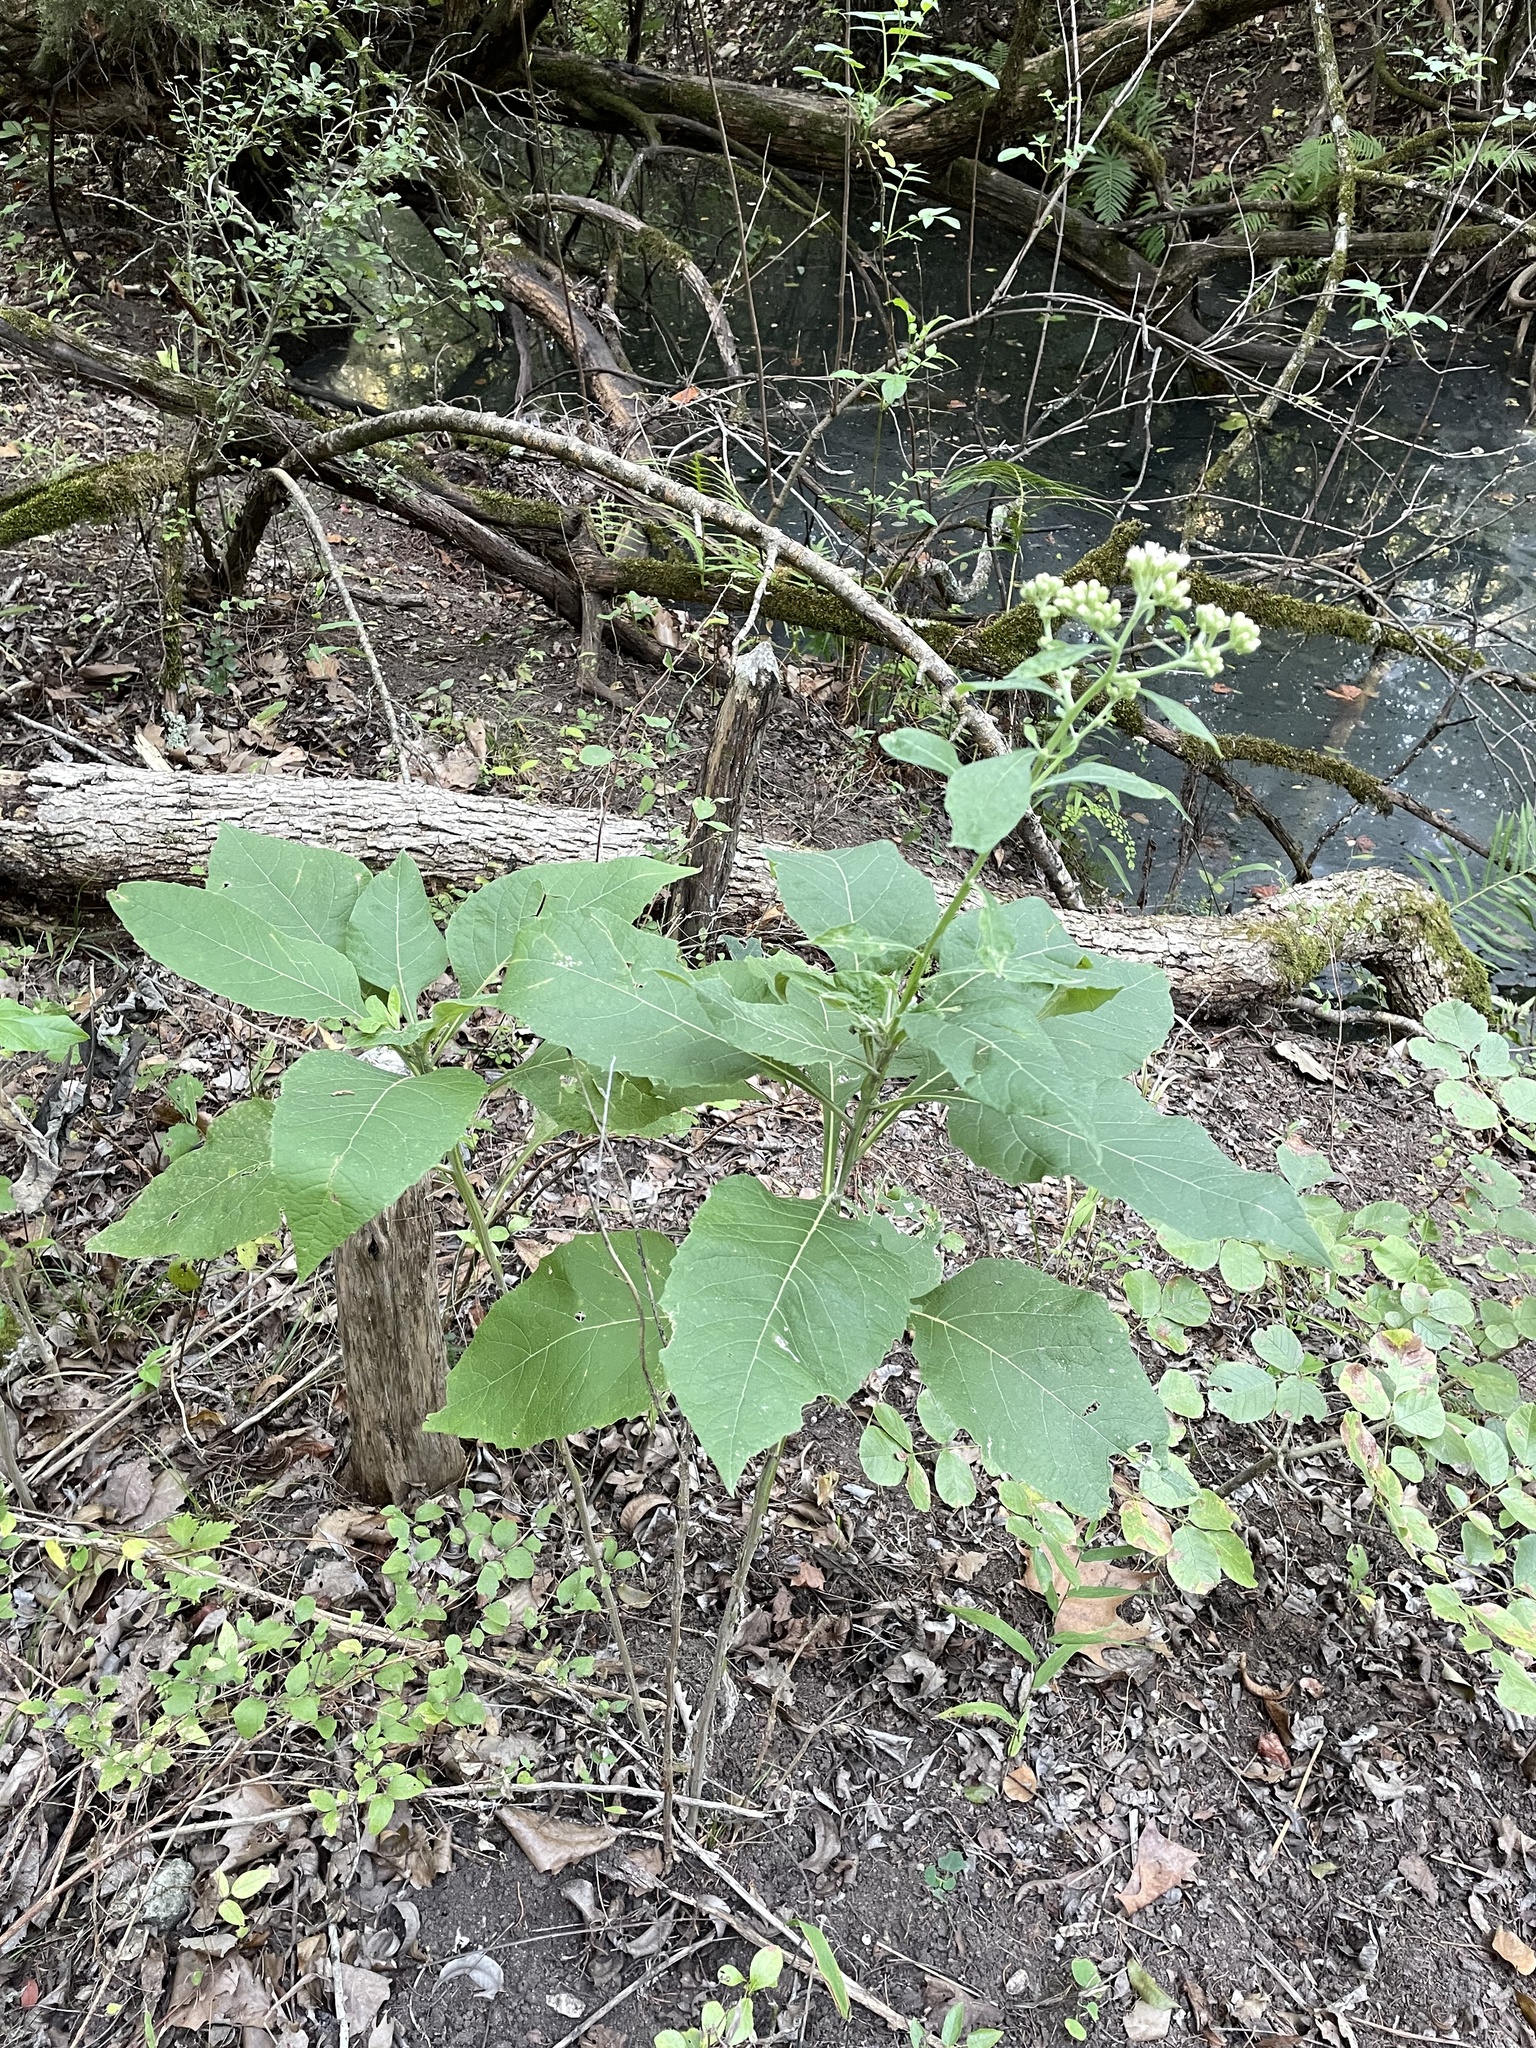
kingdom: Plantae
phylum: Tracheophyta
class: Magnoliopsida
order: Asterales
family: Asteraceae
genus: Verbesina
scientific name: Verbesina virginica
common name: Frostweed
